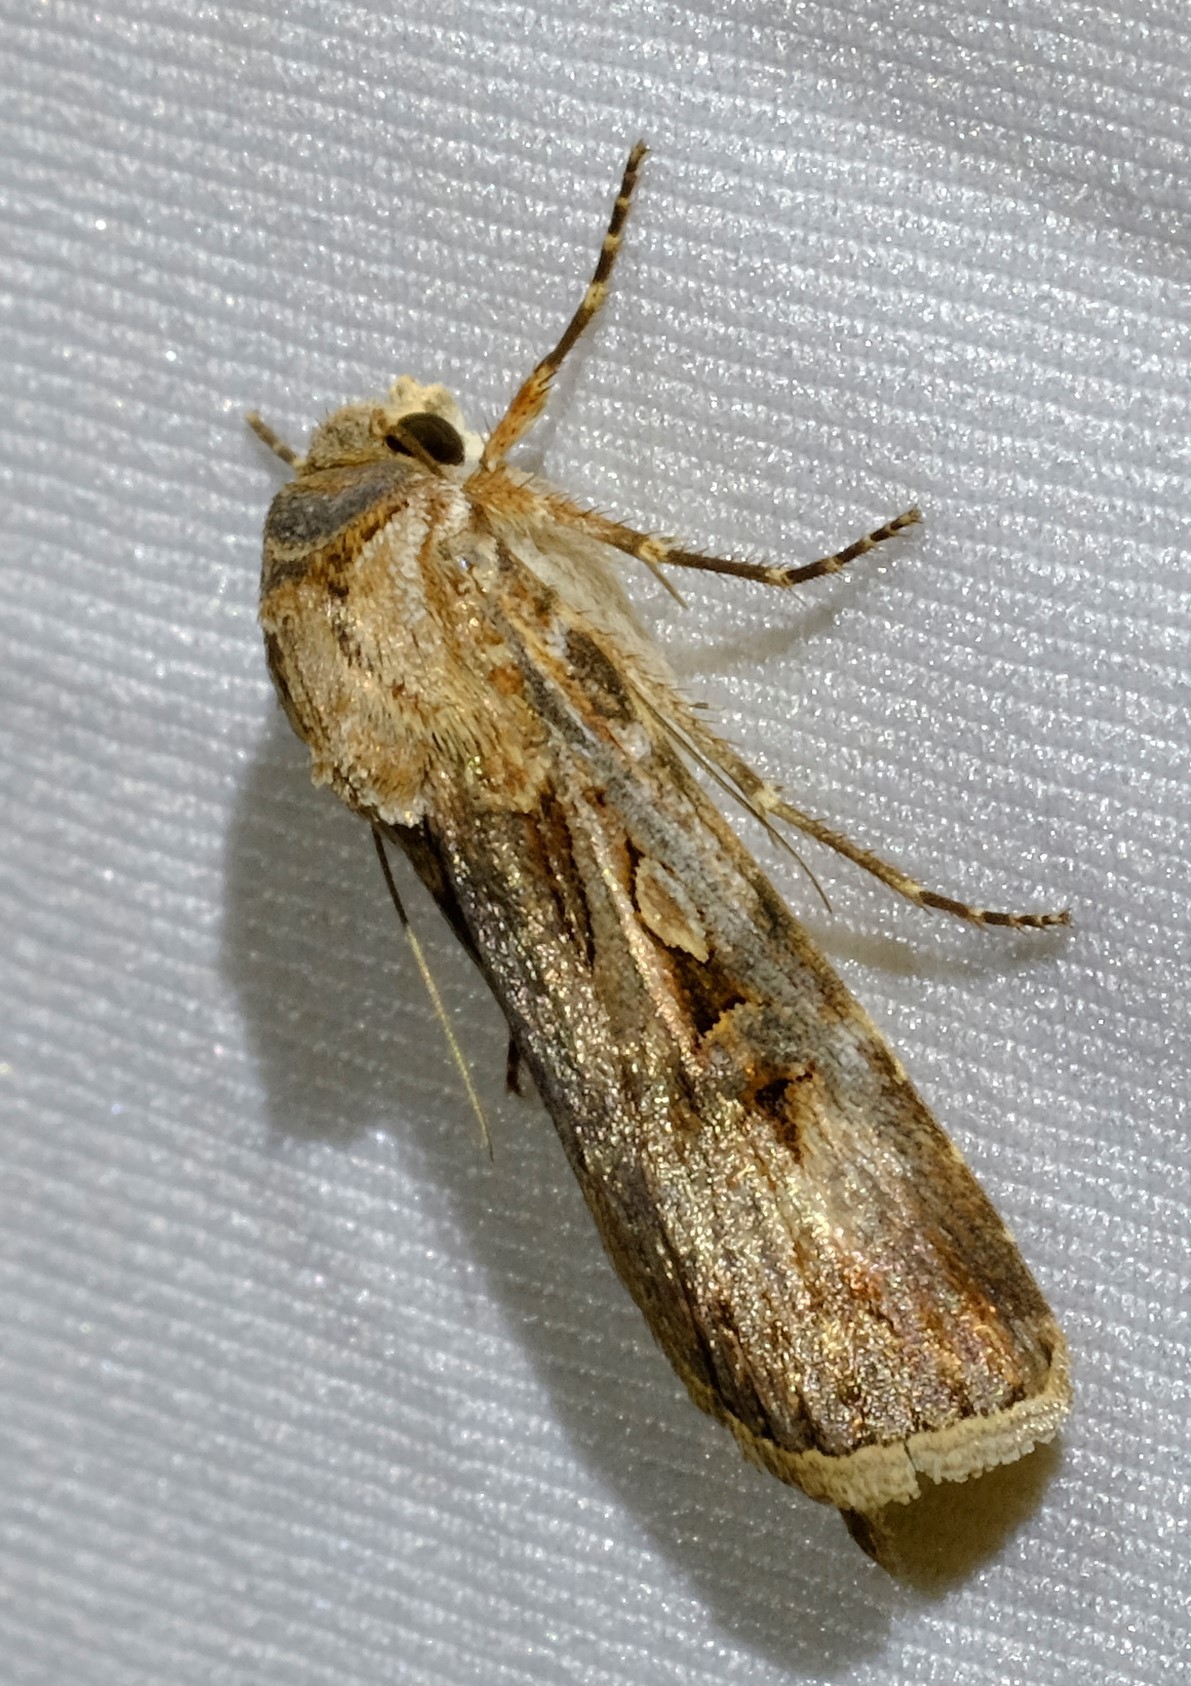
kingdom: Animalia
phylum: Arthropoda
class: Insecta
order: Lepidoptera
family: Noctuidae
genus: Agrotis
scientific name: Agrotis munda
